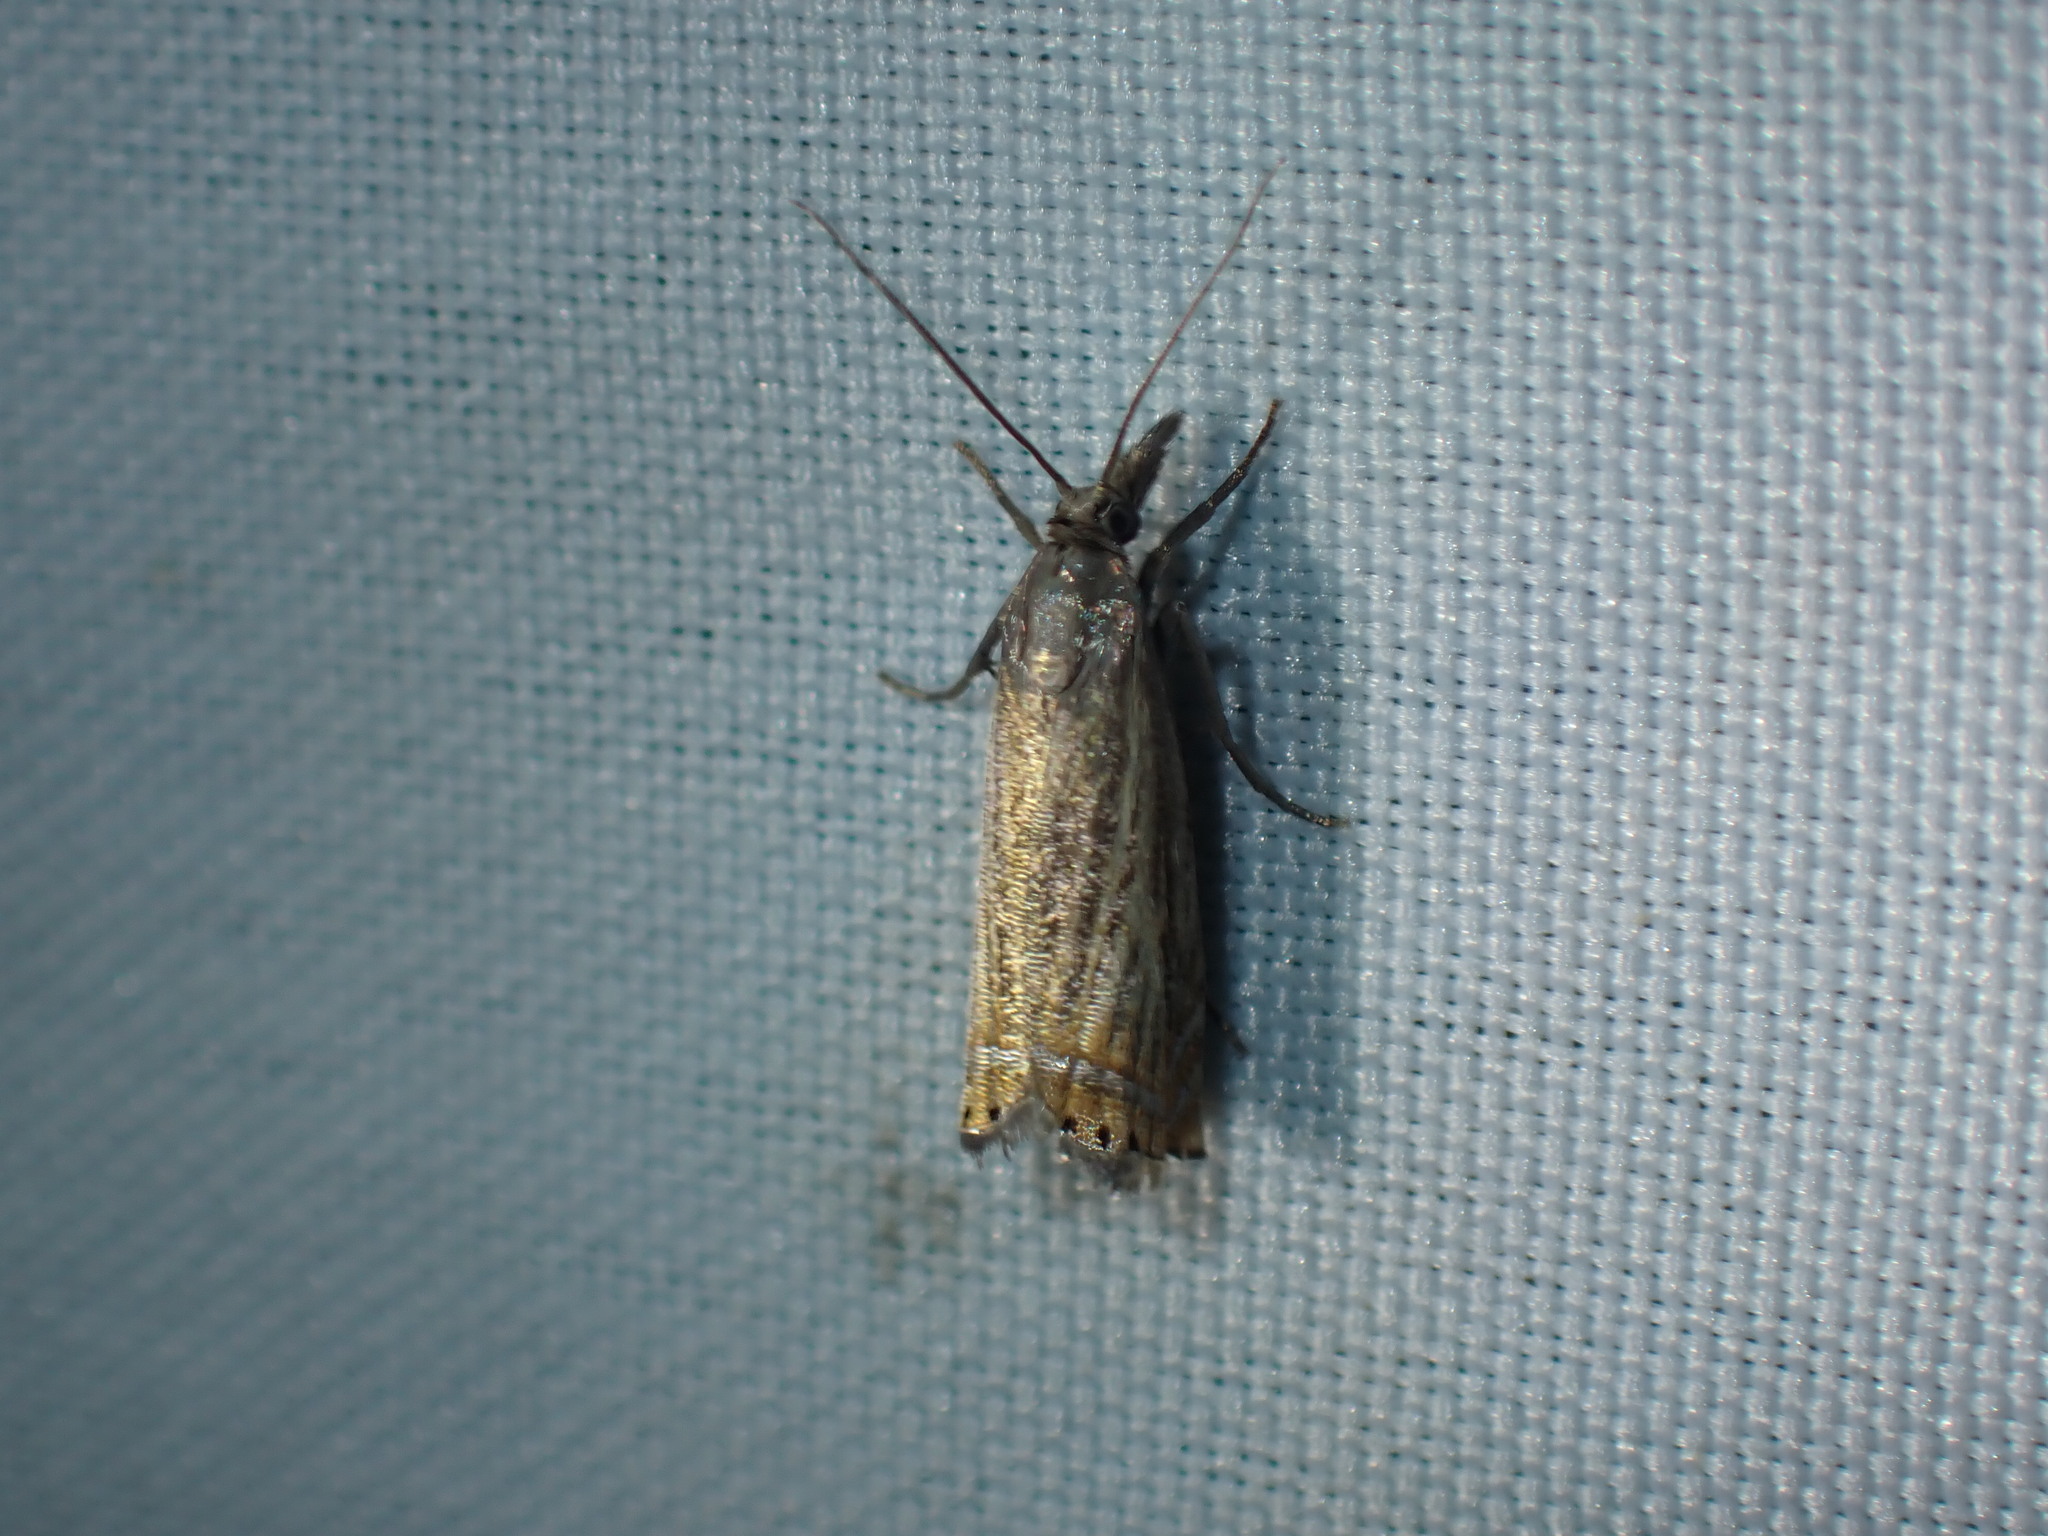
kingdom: Animalia
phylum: Arthropoda
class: Insecta
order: Lepidoptera
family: Crambidae
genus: Chrysoteuchia
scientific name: Chrysoteuchia topiarius
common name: Topiary grass-veneer
